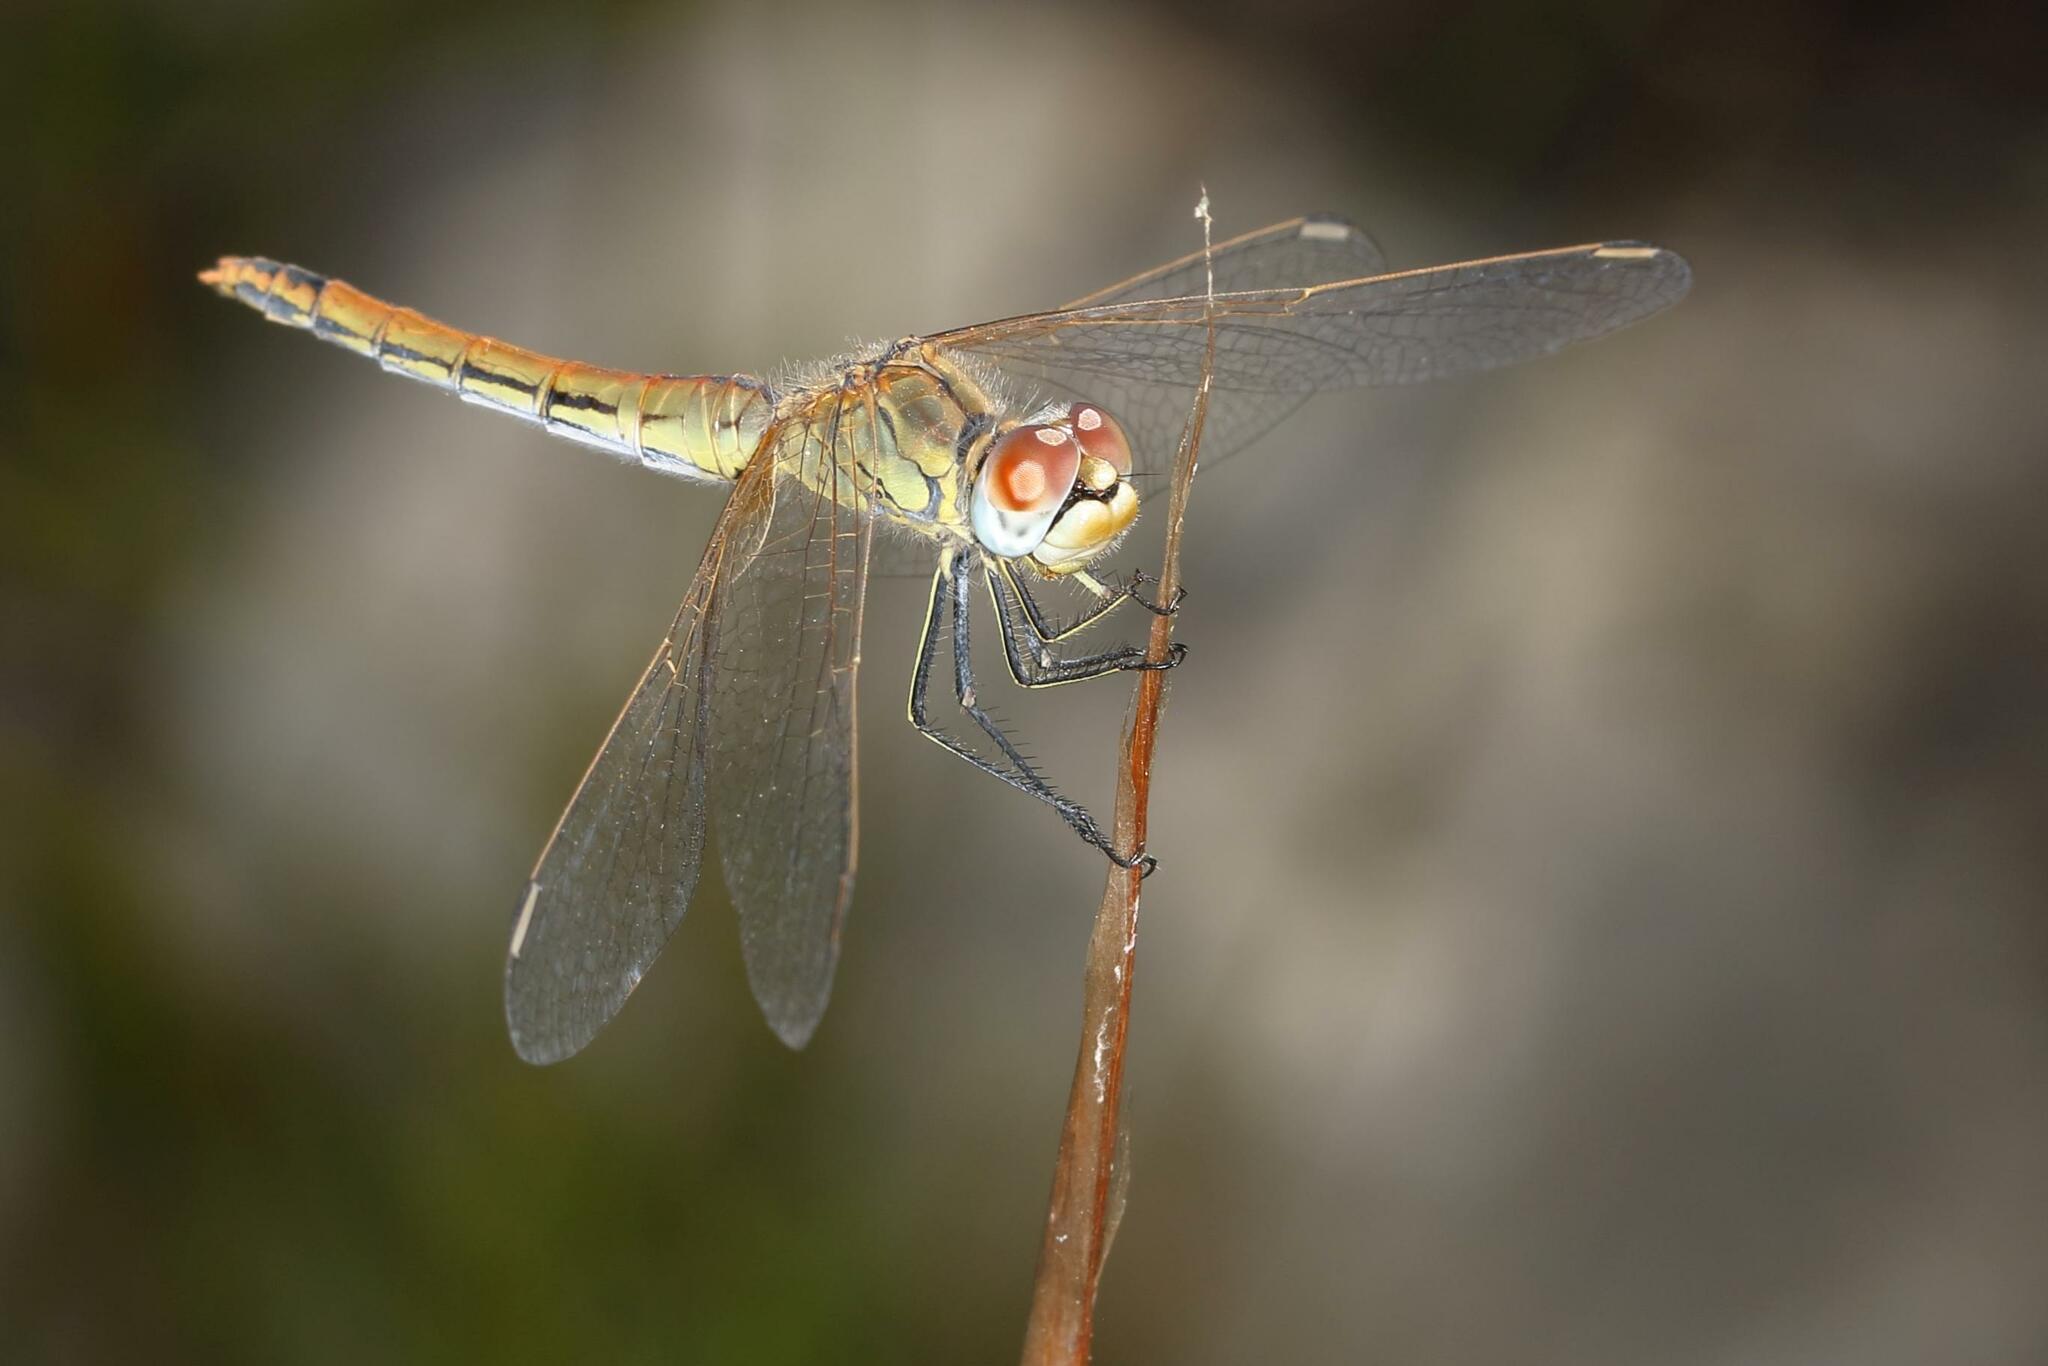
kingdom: Animalia
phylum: Arthropoda
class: Insecta
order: Odonata
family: Libellulidae
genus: Sympetrum
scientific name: Sympetrum fonscolombii
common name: Red-veined darter
